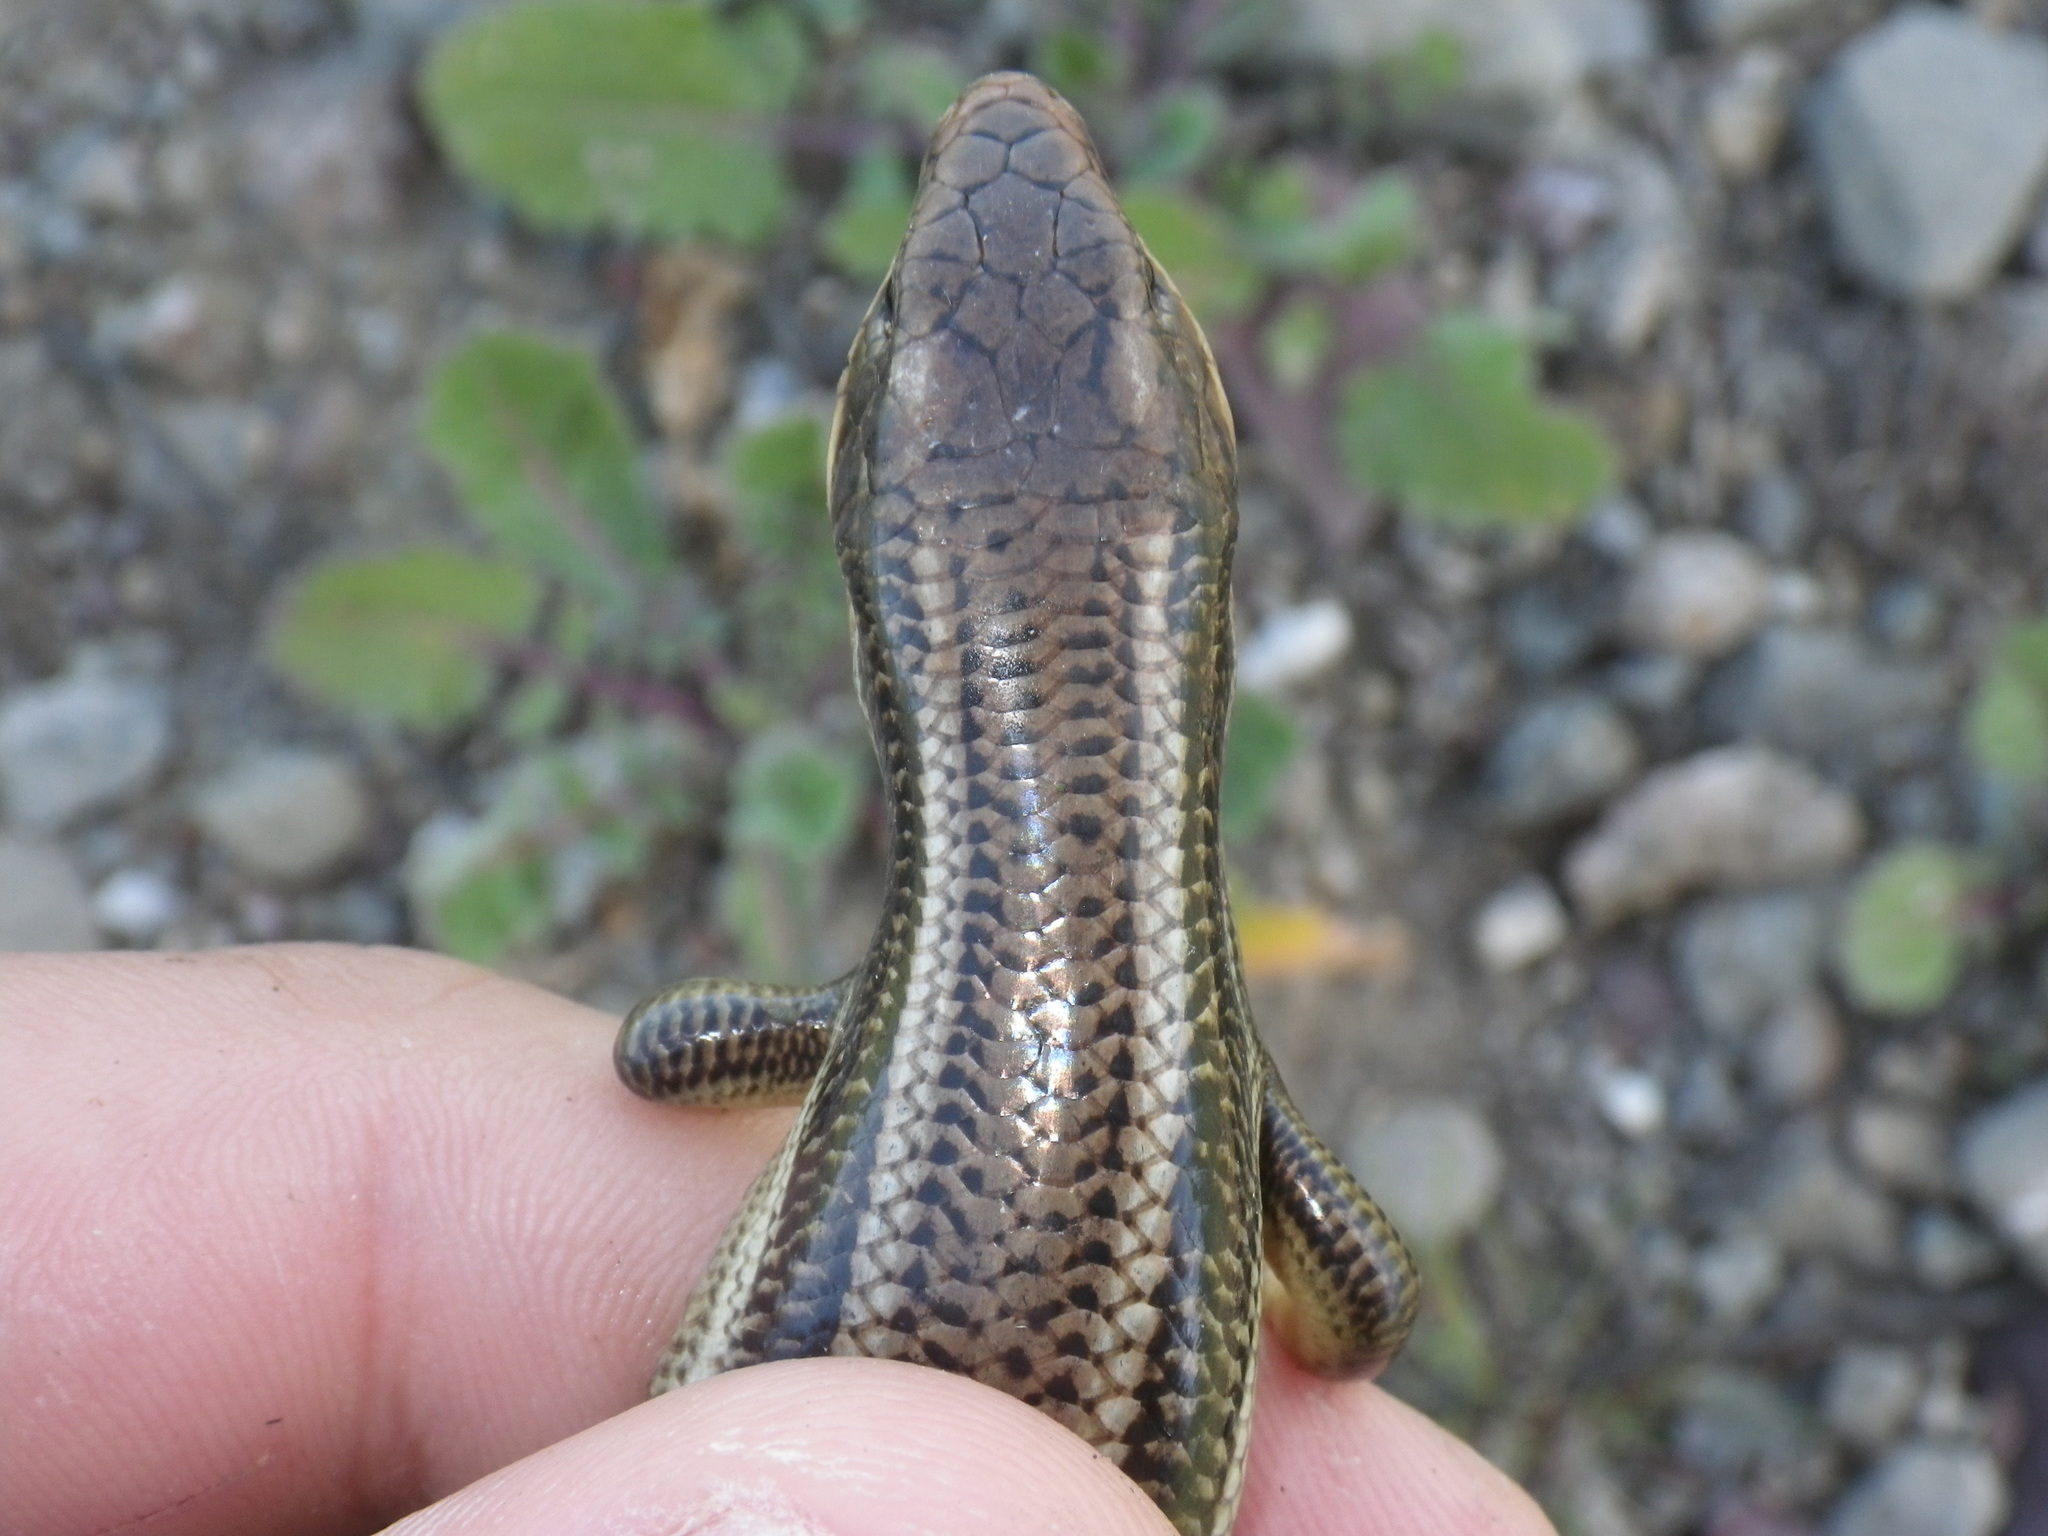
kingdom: Animalia
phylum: Chordata
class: Squamata
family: Scincidae
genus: Plestiodon
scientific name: Plestiodon gilberti
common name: Gilbert's skink
